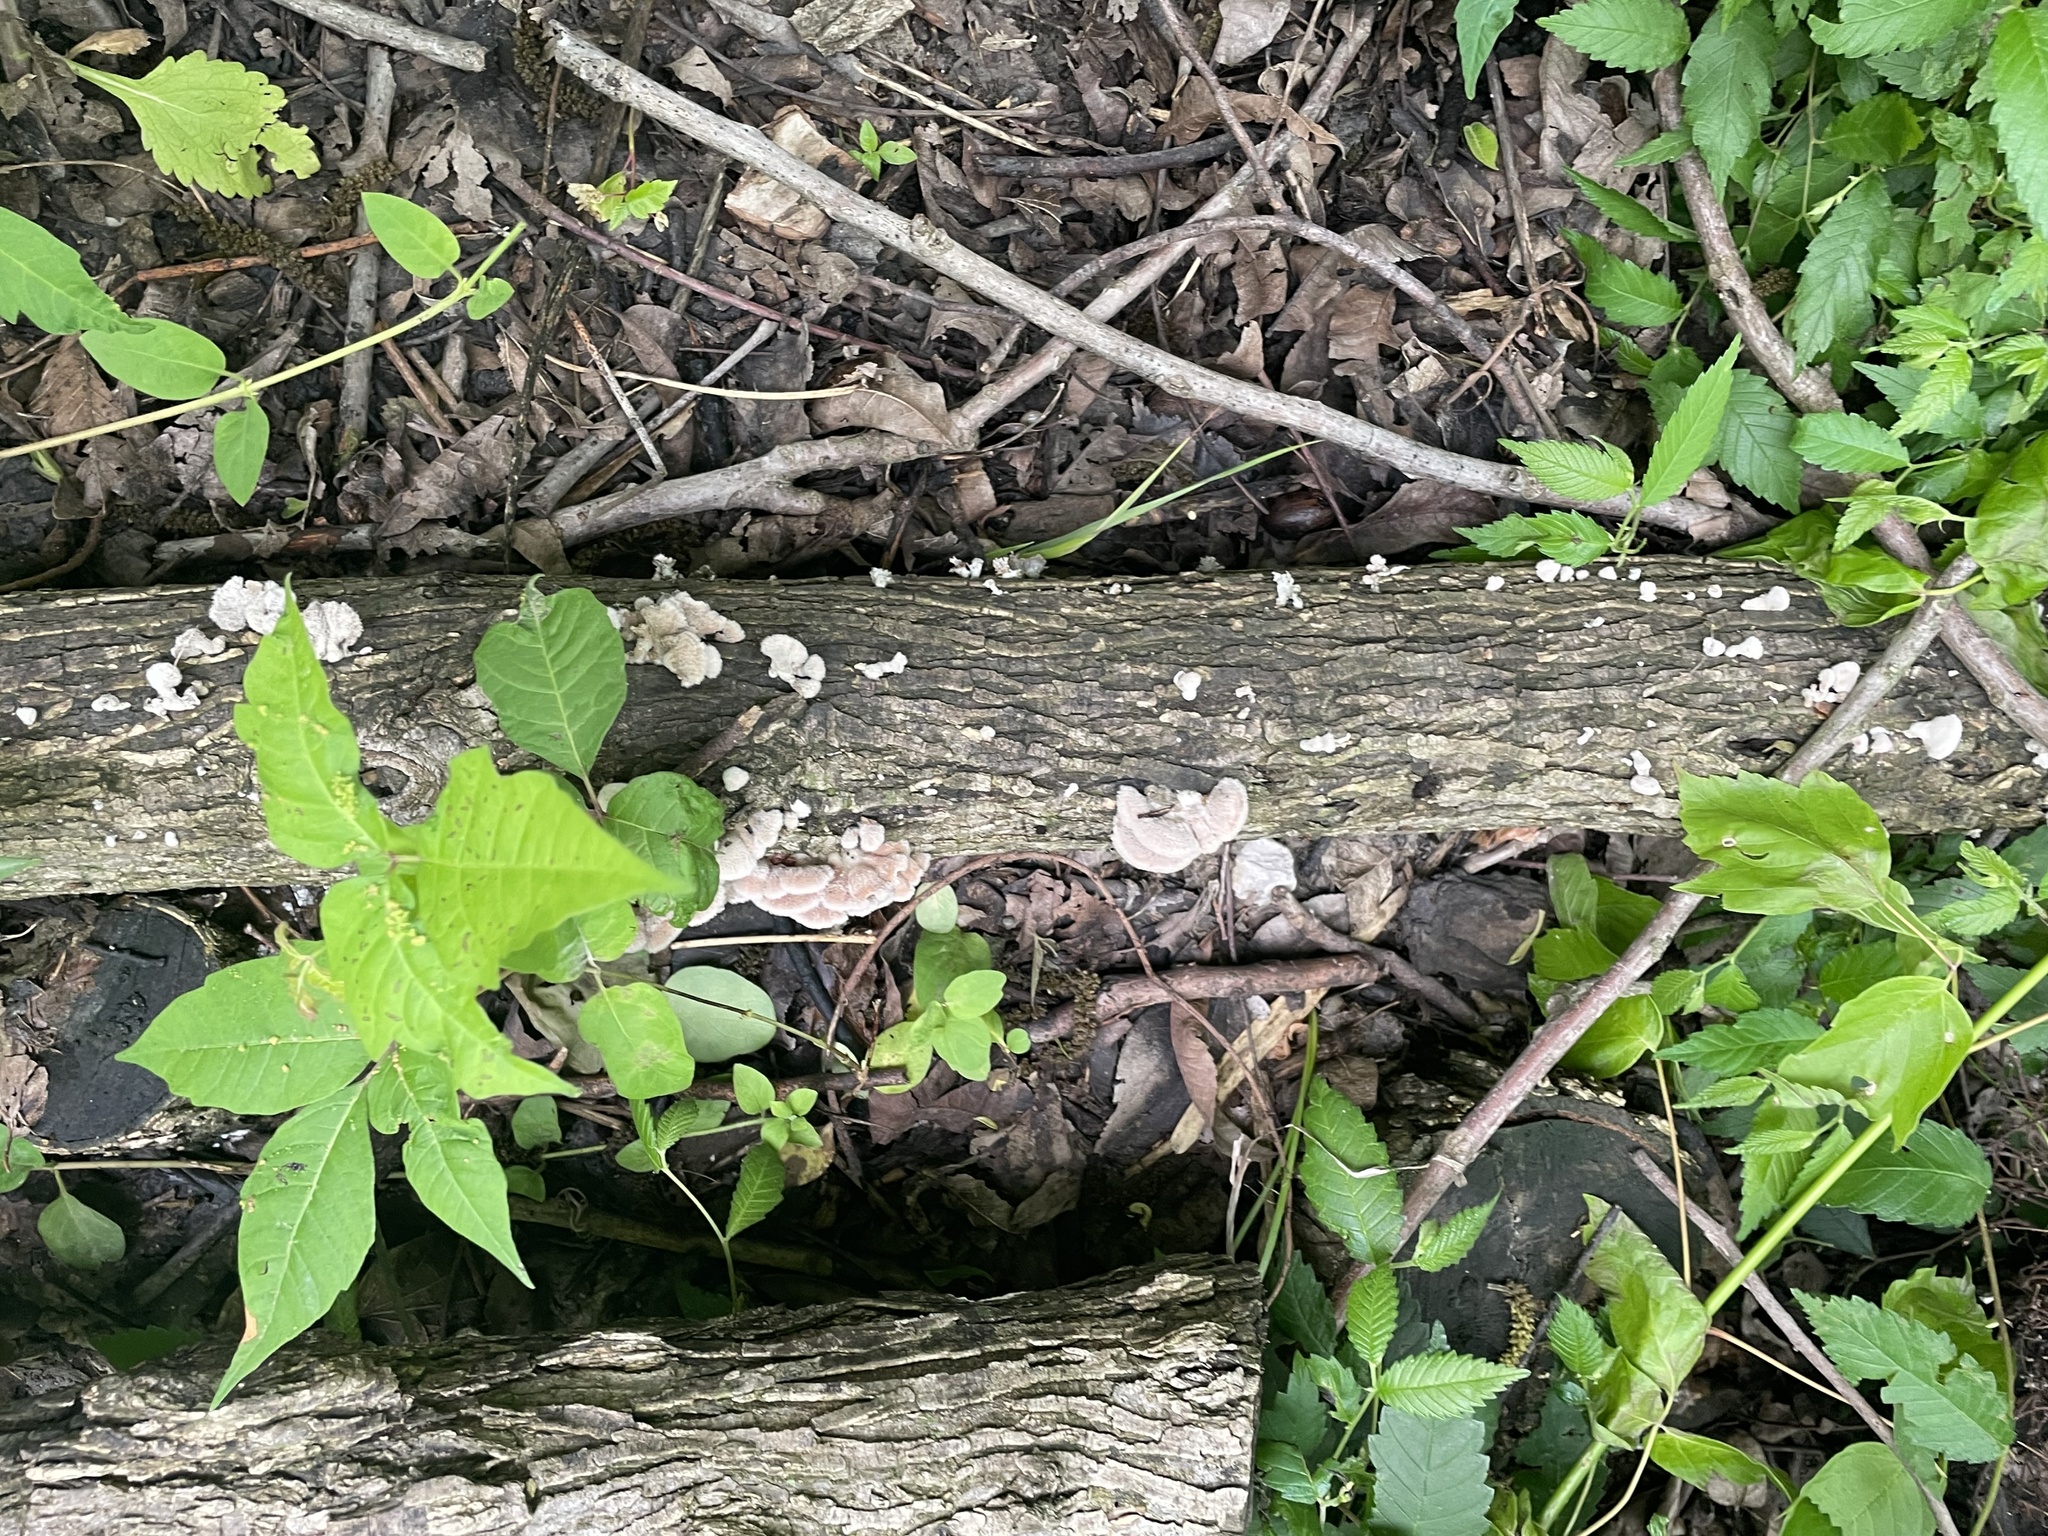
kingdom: Fungi
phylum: Basidiomycota
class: Agaricomycetes
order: Agaricales
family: Schizophyllaceae
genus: Schizophyllum
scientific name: Schizophyllum commune
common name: Common porecrust
